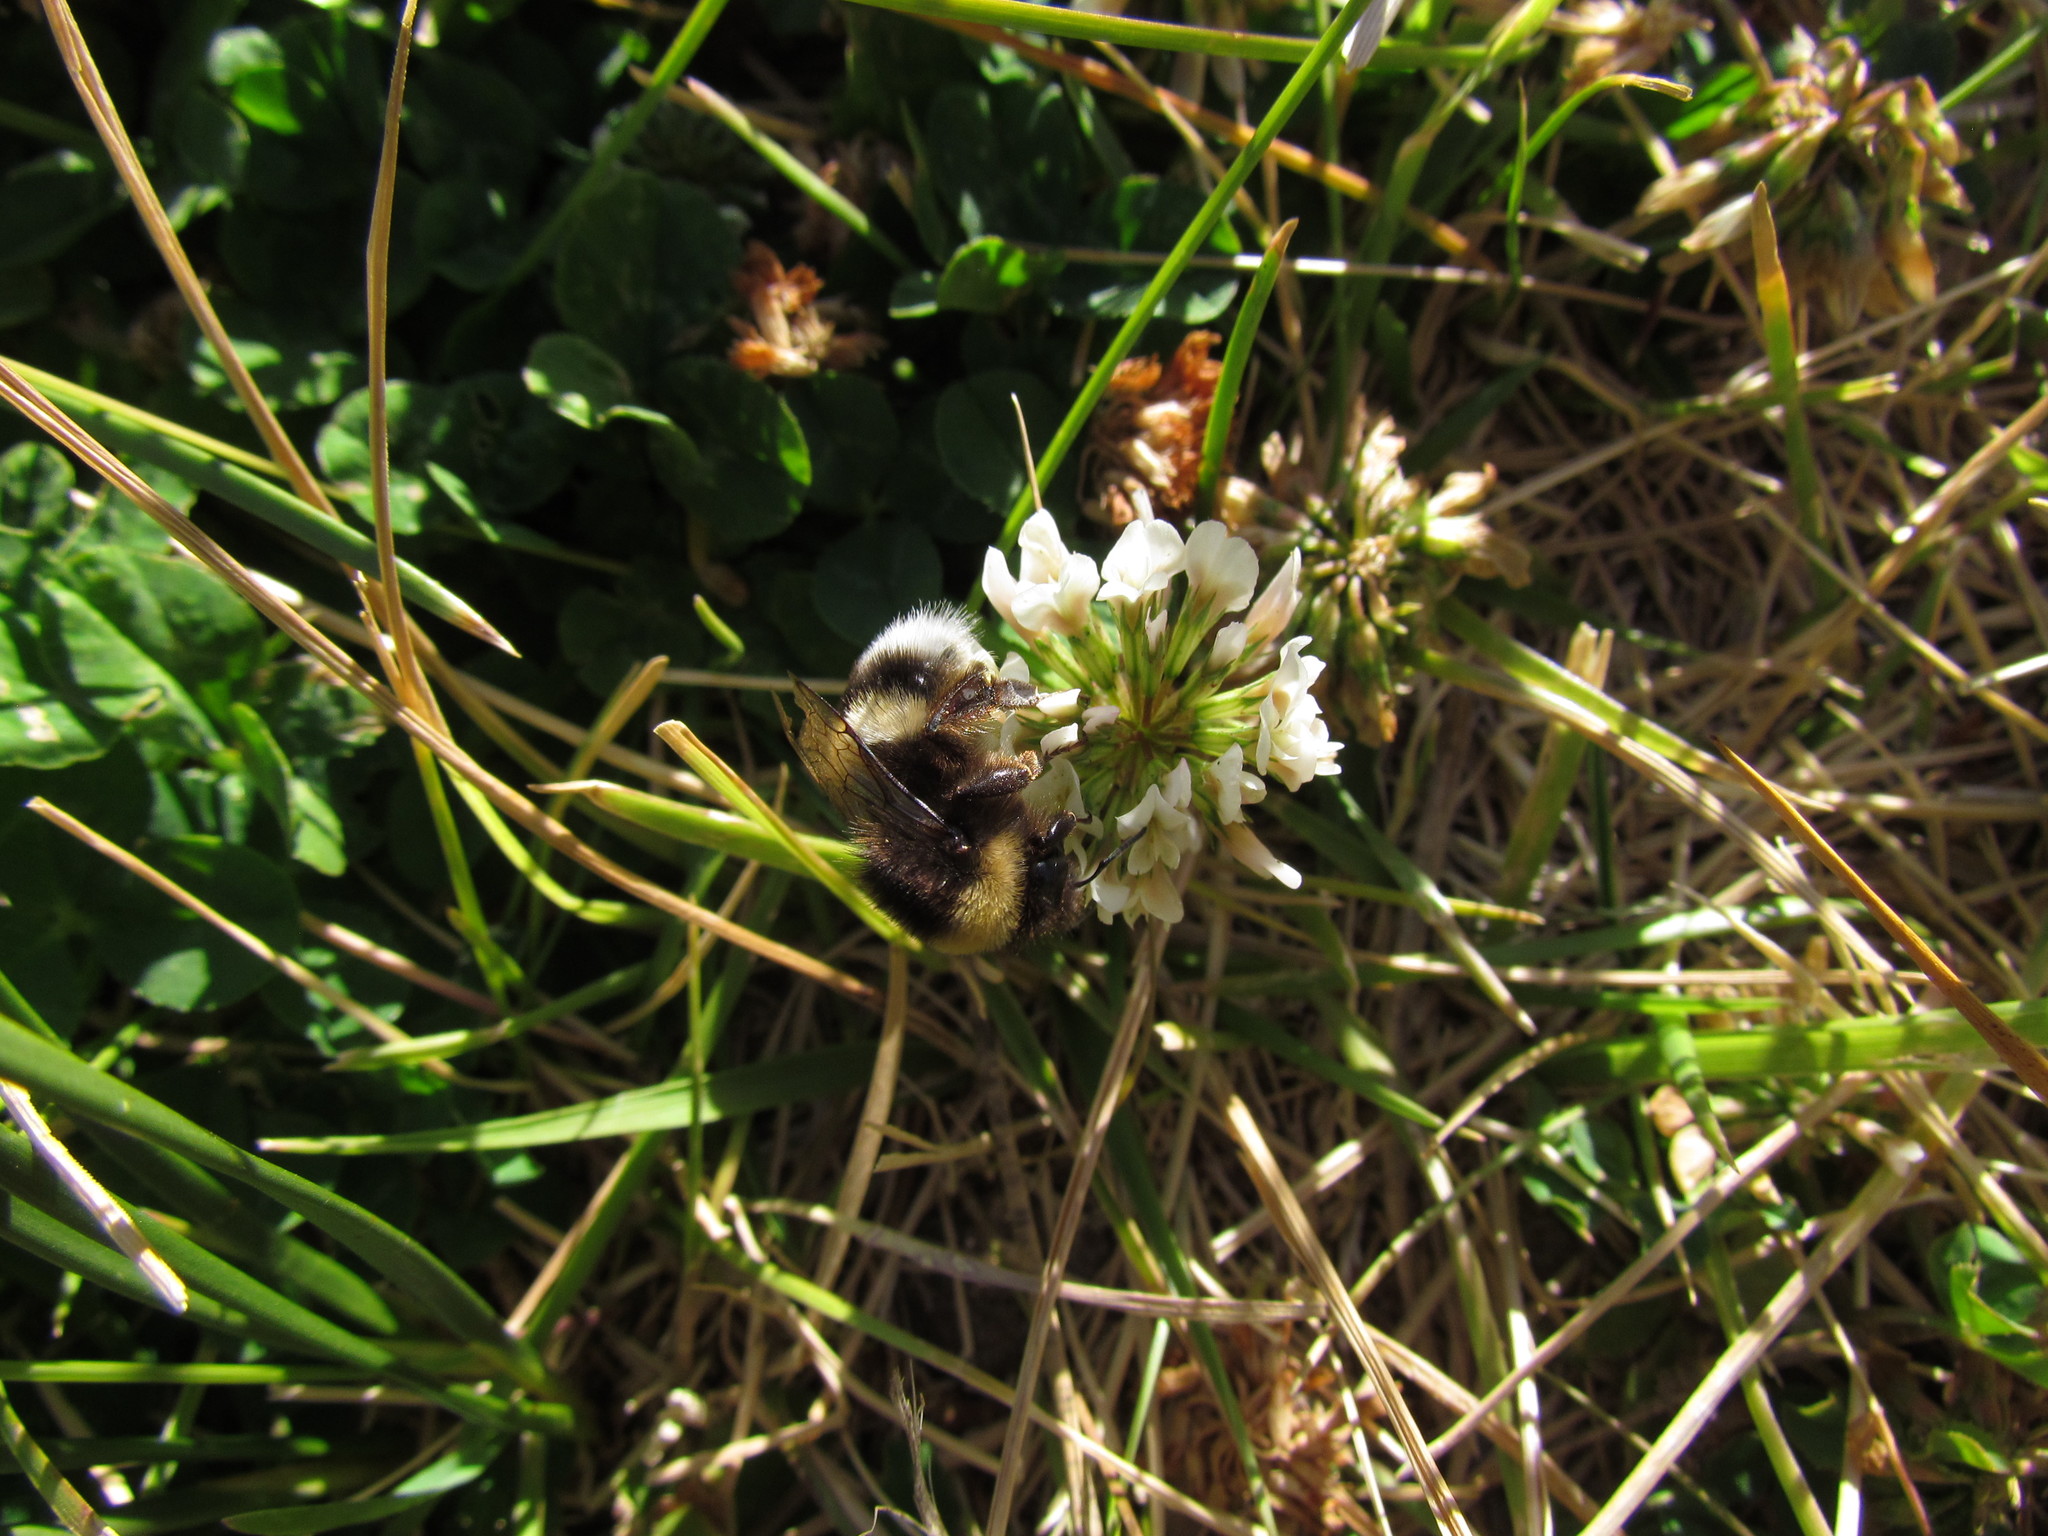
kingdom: Animalia
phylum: Arthropoda
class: Insecta
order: Hymenoptera
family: Apidae
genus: Bombus
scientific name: Bombus terrestris
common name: Buff-tailed bumblebee
